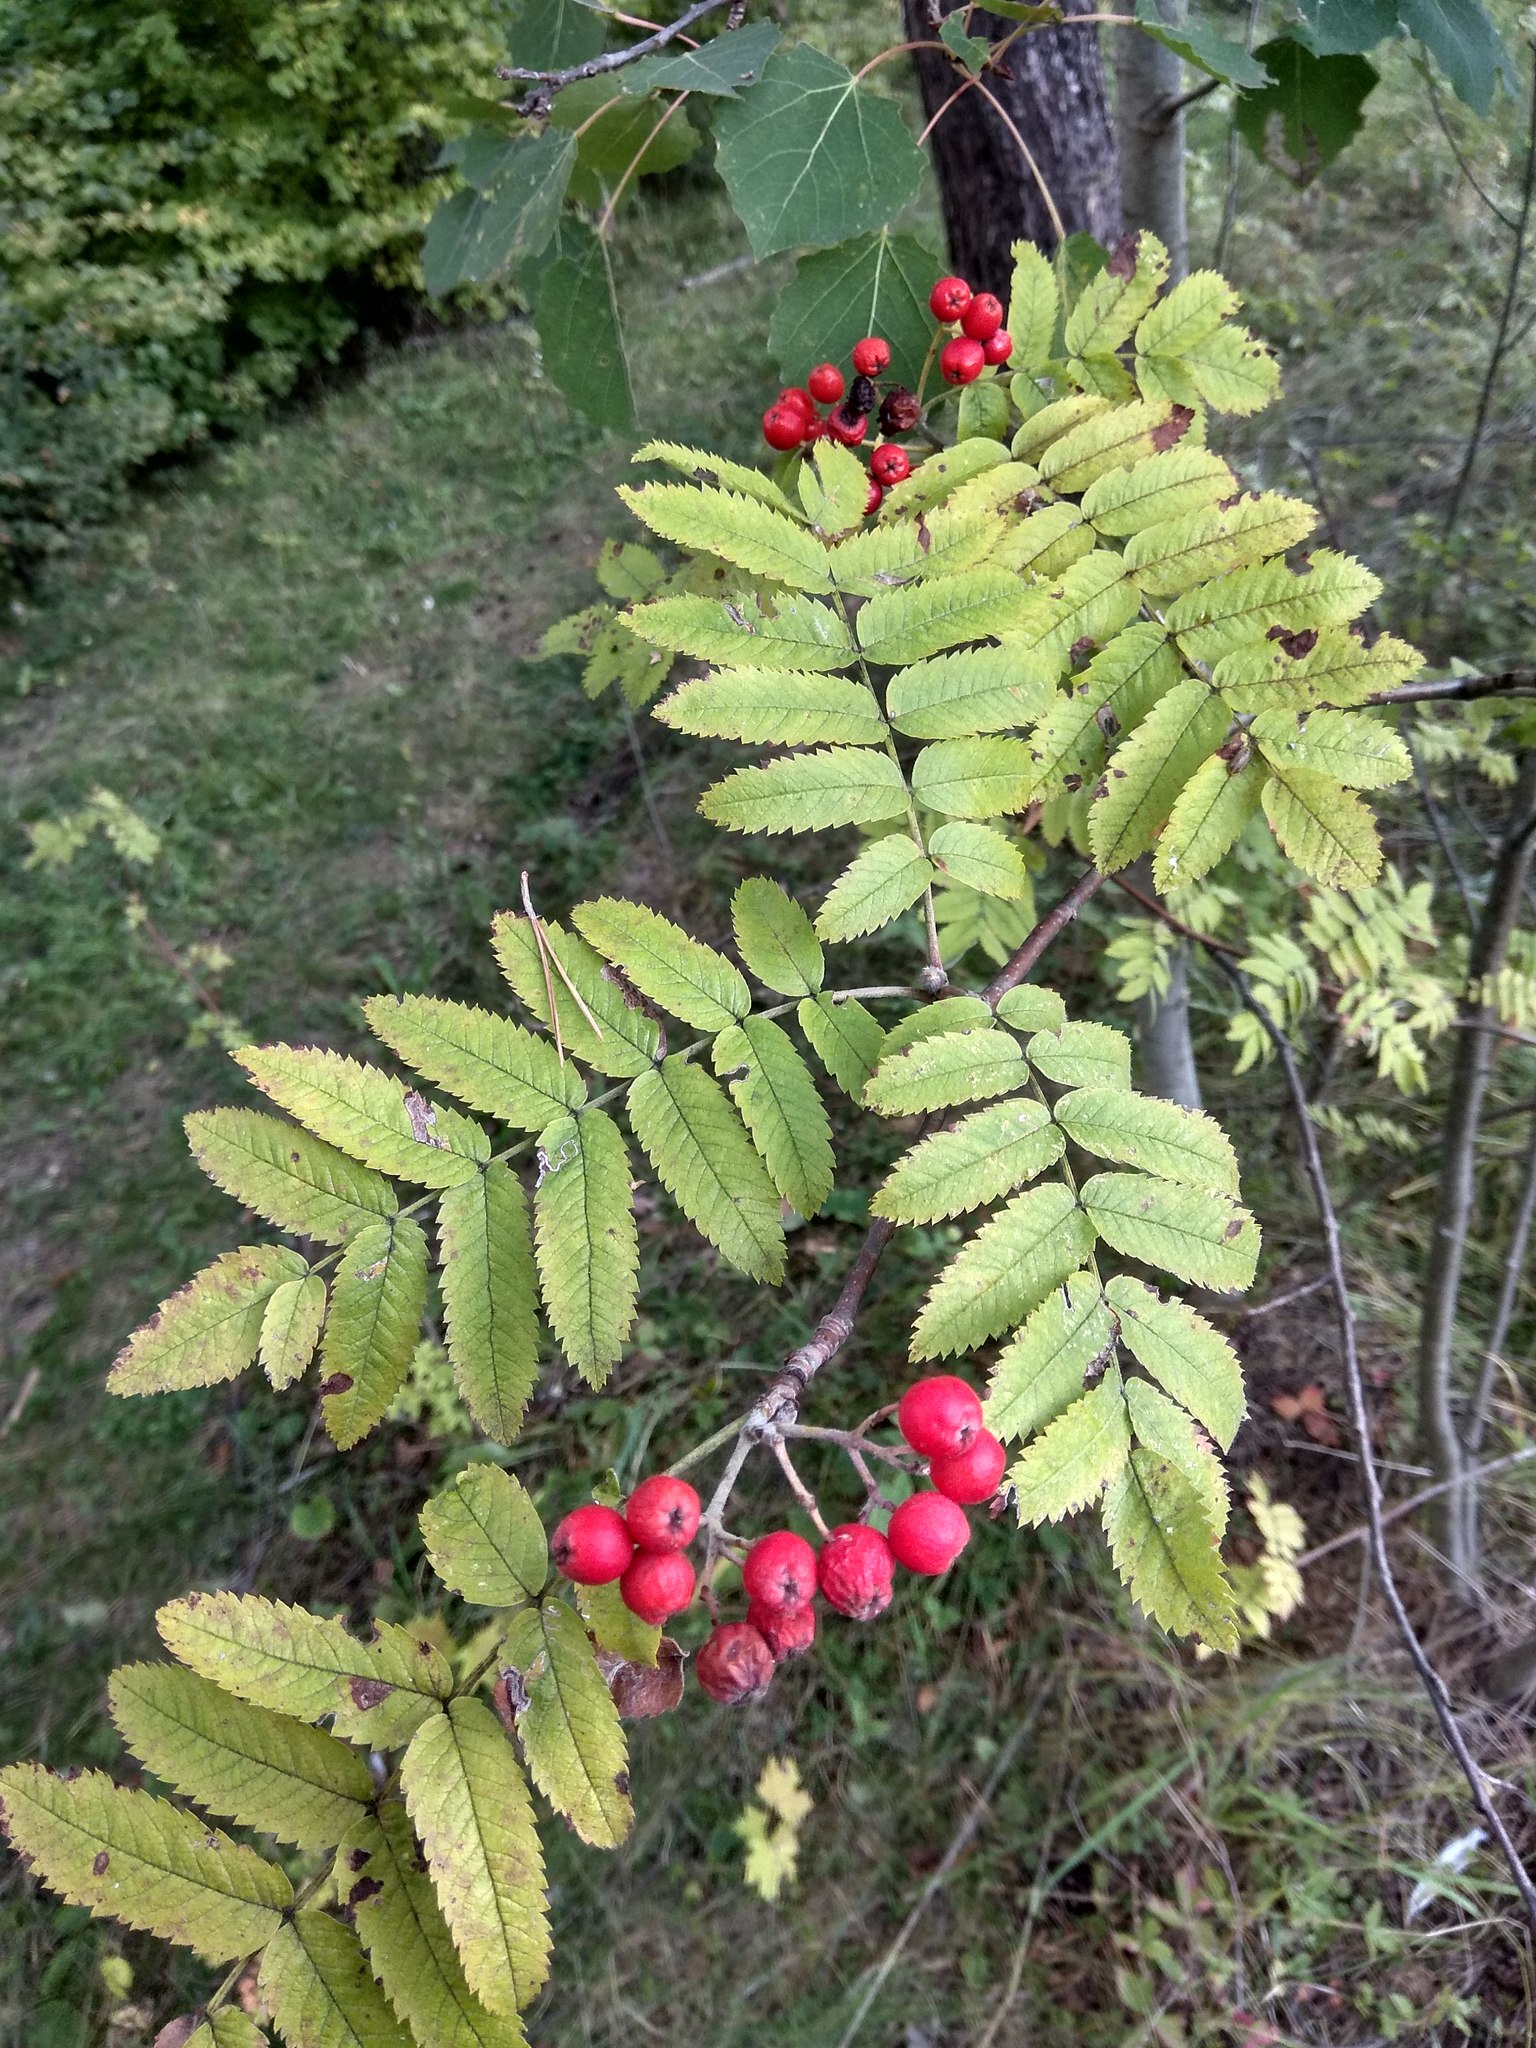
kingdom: Plantae
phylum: Tracheophyta
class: Magnoliopsida
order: Rosales
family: Rosaceae
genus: Sorbus
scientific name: Sorbus aucuparia
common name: Rowan
